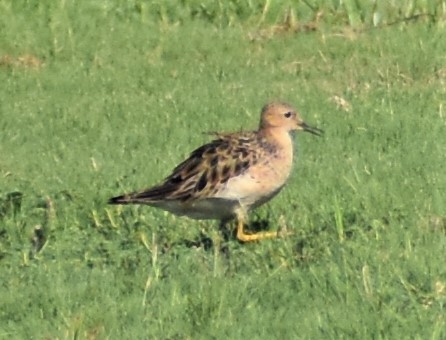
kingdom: Animalia
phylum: Chordata
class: Aves
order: Charadriiformes
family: Scolopacidae
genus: Calidris
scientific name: Calidris subruficollis
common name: Buff-breasted sandpiper
